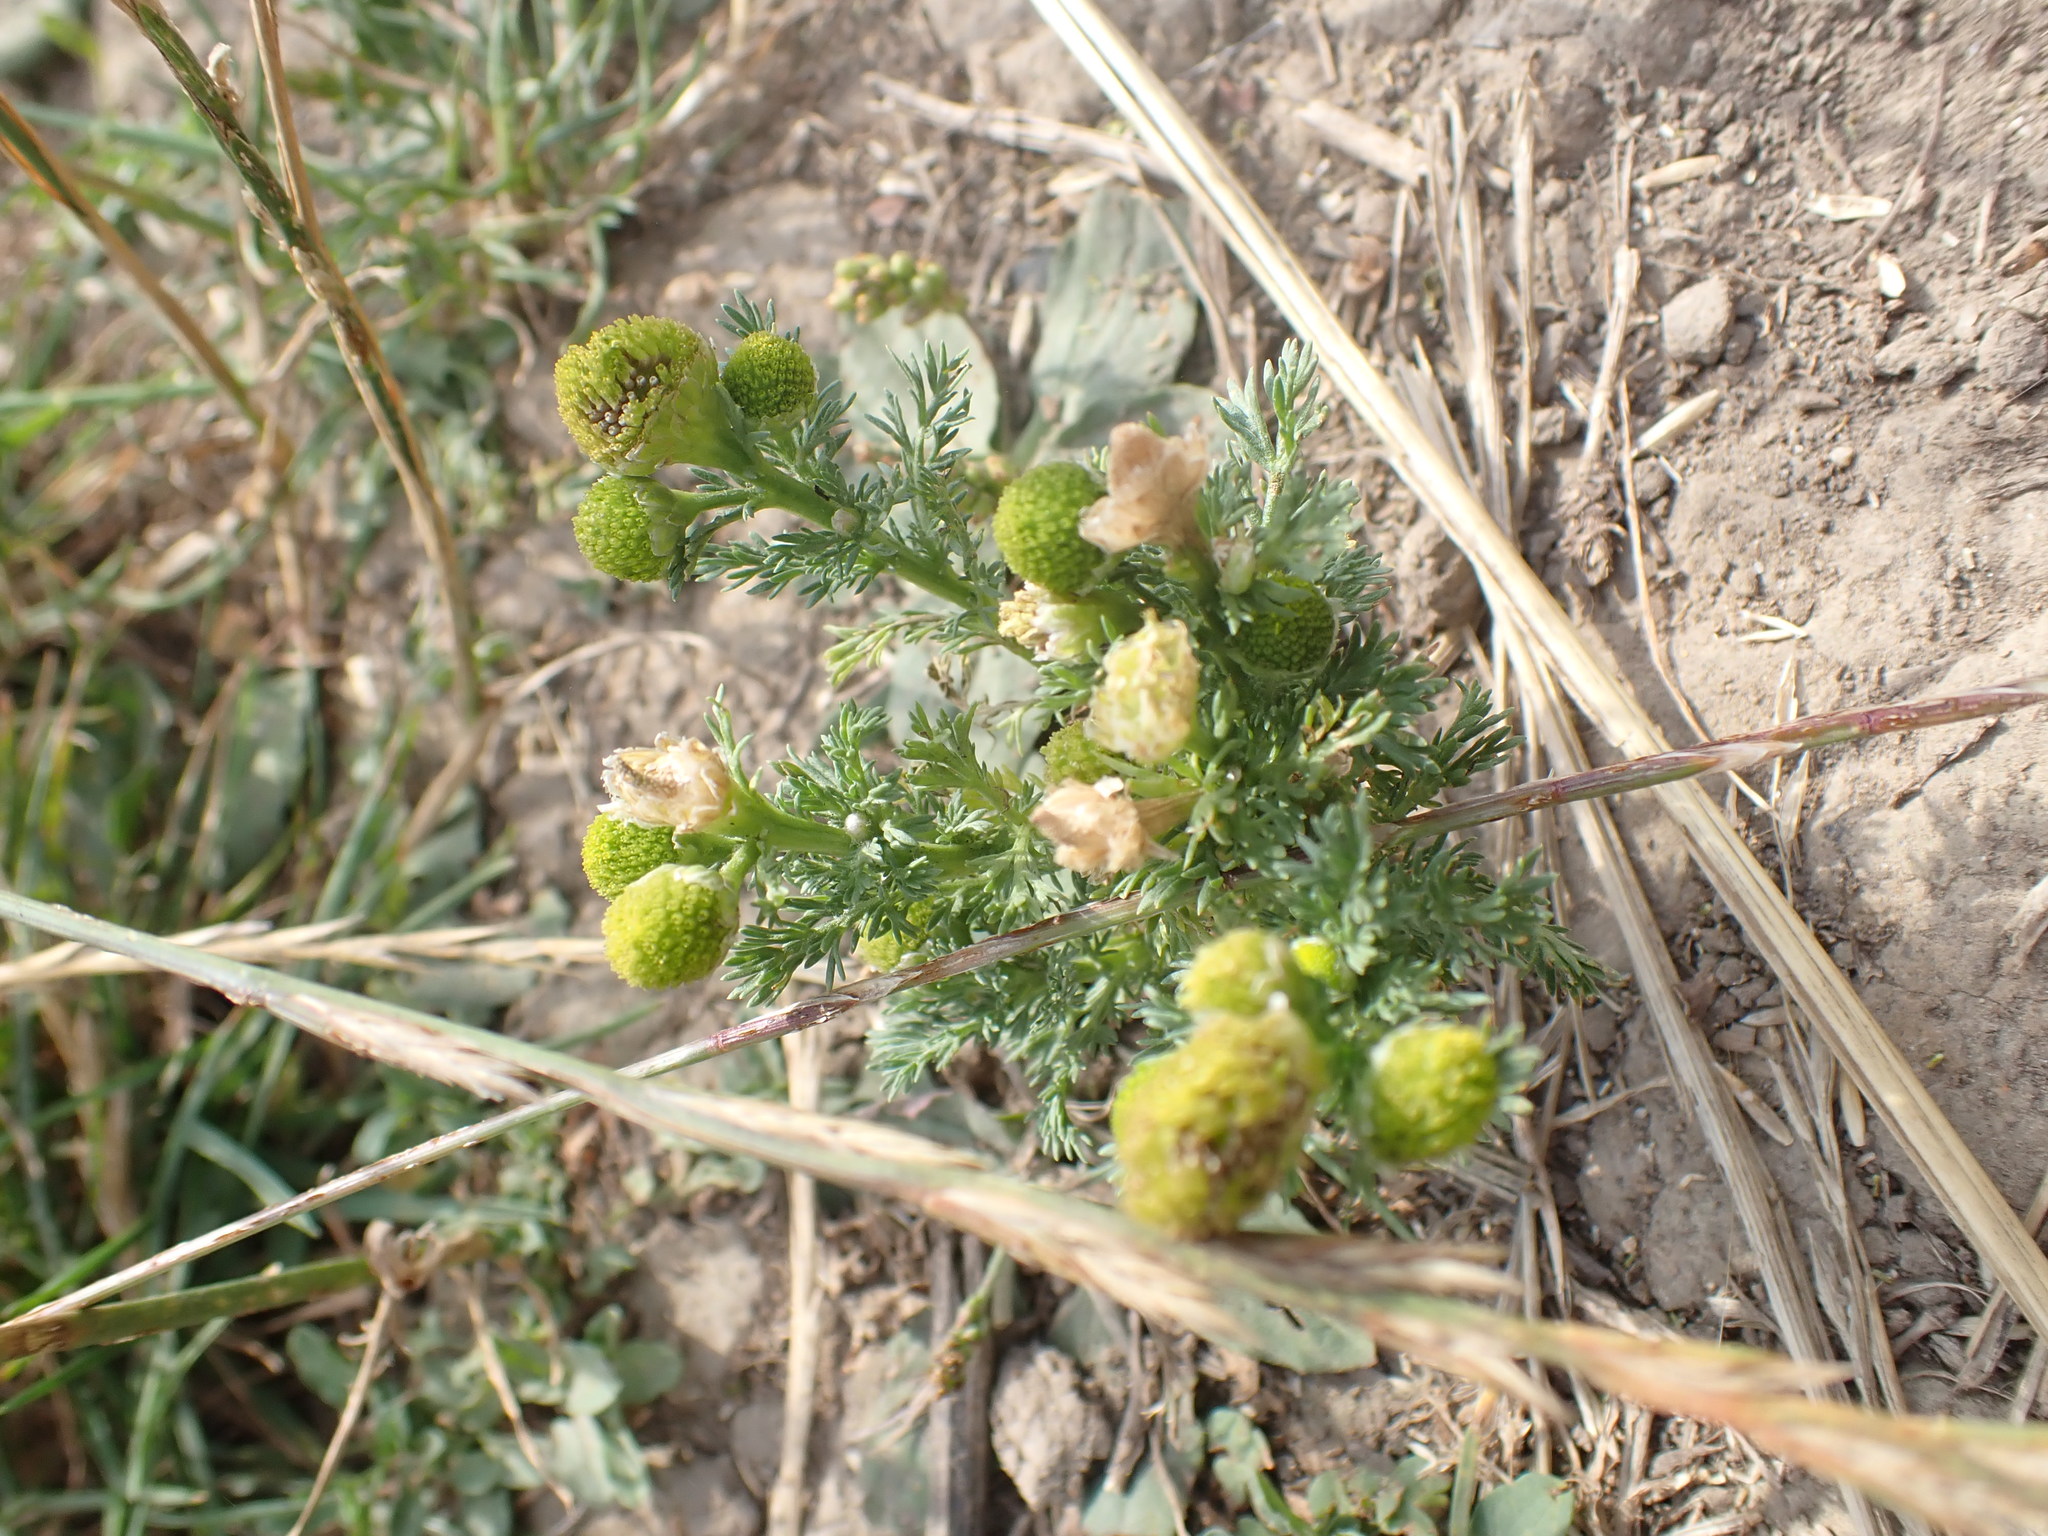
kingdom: Plantae
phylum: Tracheophyta
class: Magnoliopsida
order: Asterales
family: Asteraceae
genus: Matricaria
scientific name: Matricaria discoidea
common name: Disc mayweed
